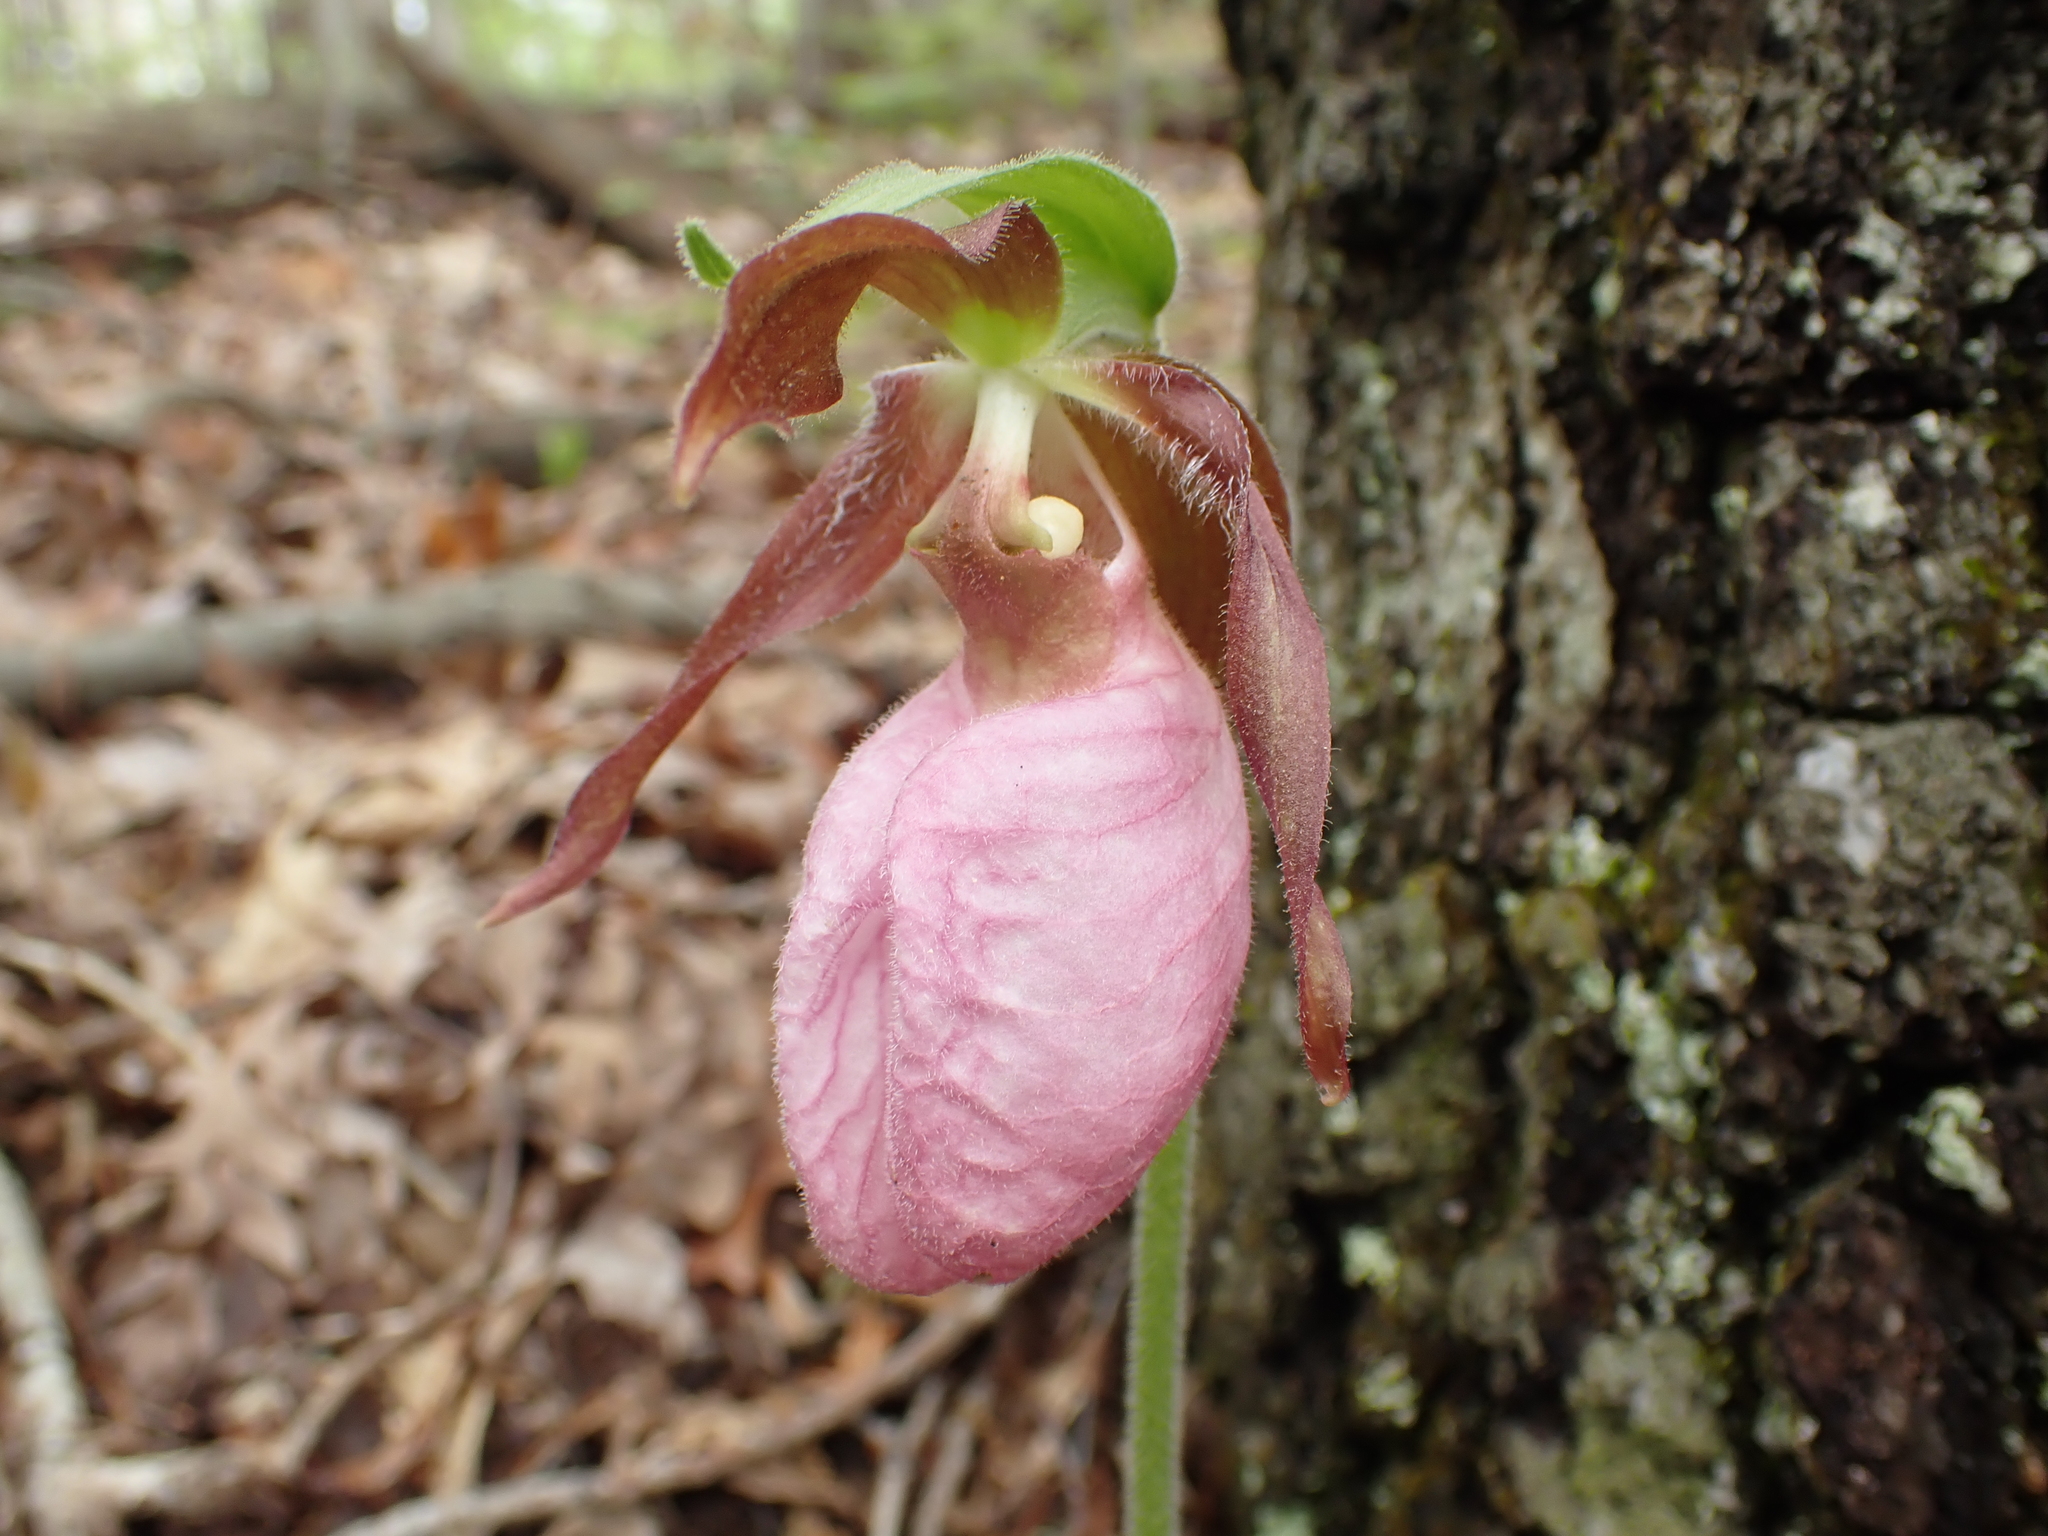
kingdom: Plantae
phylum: Tracheophyta
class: Liliopsida
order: Asparagales
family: Orchidaceae
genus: Cypripedium
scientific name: Cypripedium acaule
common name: Pink lady's-slipper
